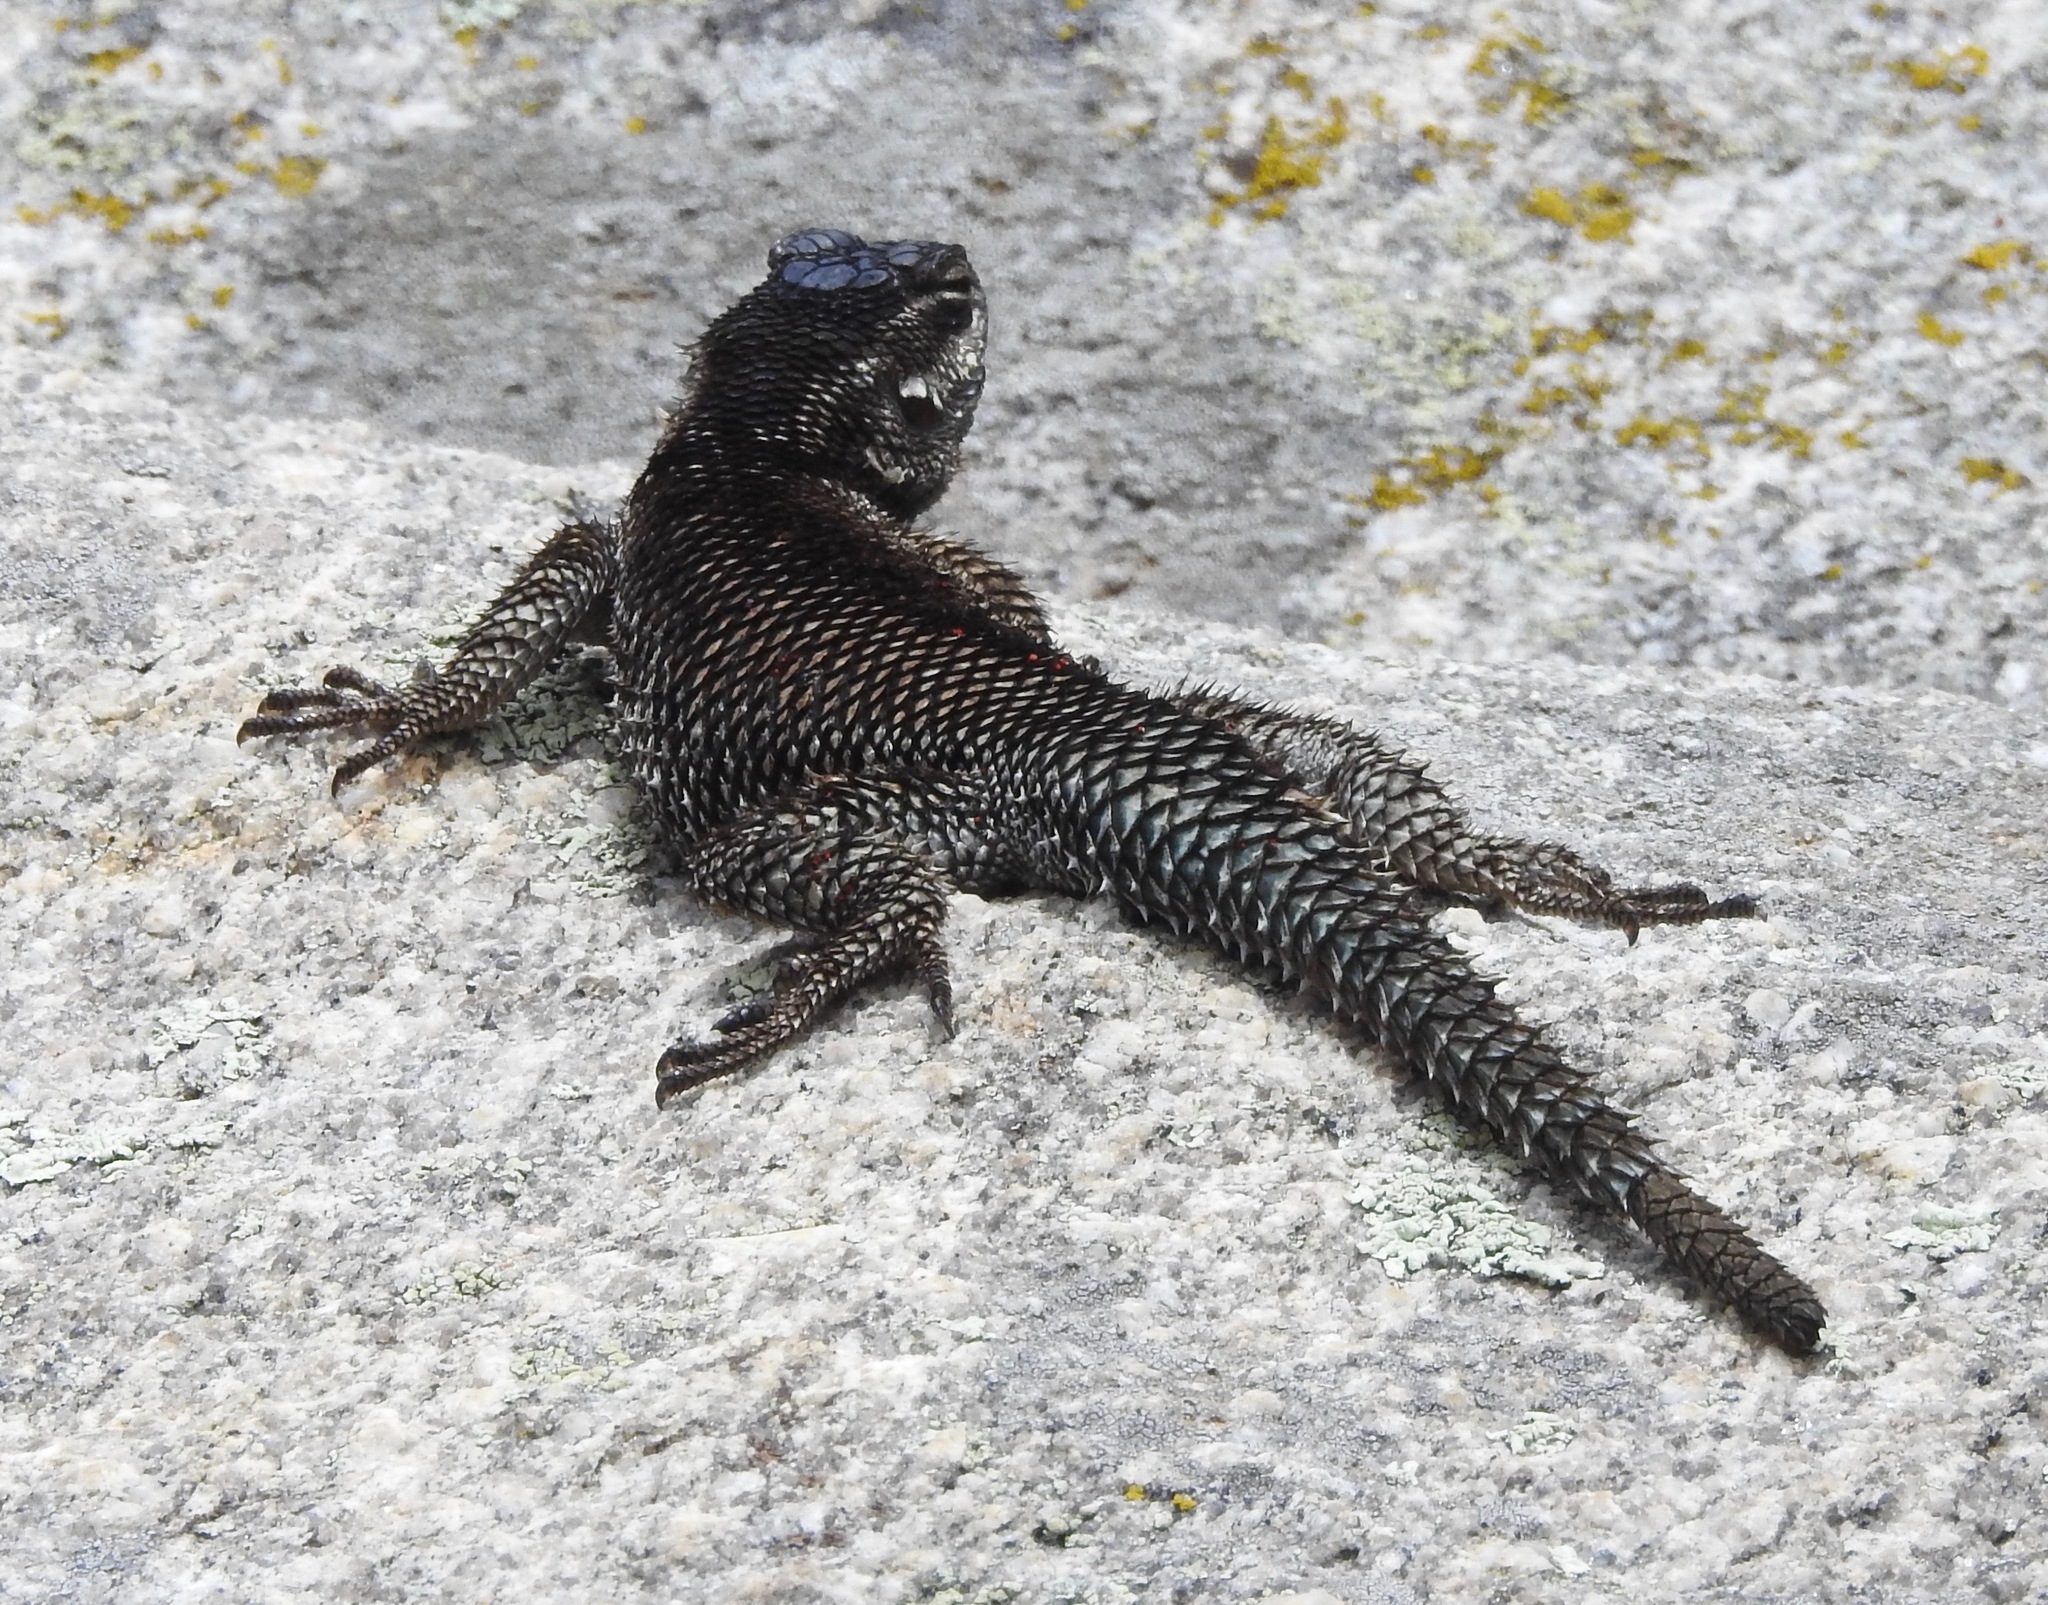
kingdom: Animalia
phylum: Chordata
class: Squamata
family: Phrynosomatidae
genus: Sceloporus
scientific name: Sceloporus jarrovii
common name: Yarrow's spiny lizard
